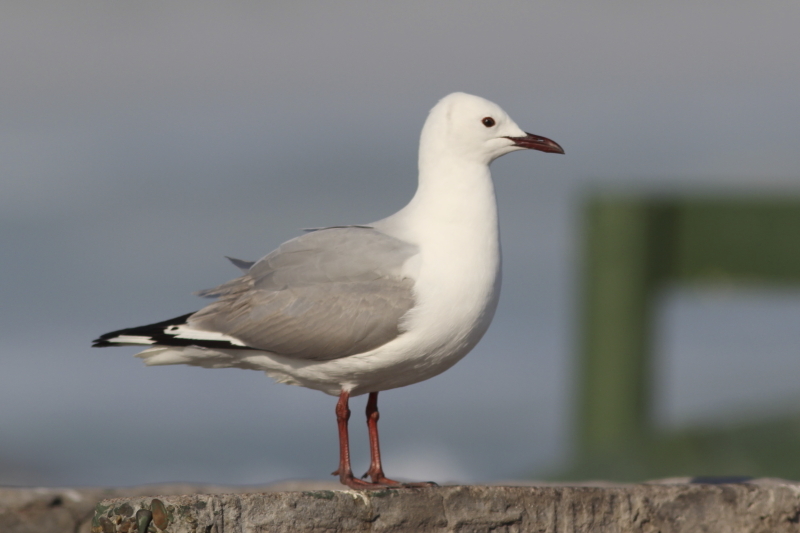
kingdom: Animalia
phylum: Chordata
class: Aves
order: Charadriiformes
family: Laridae
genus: Chroicocephalus
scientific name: Chroicocephalus hartlaubii
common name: Hartlaub's gull
